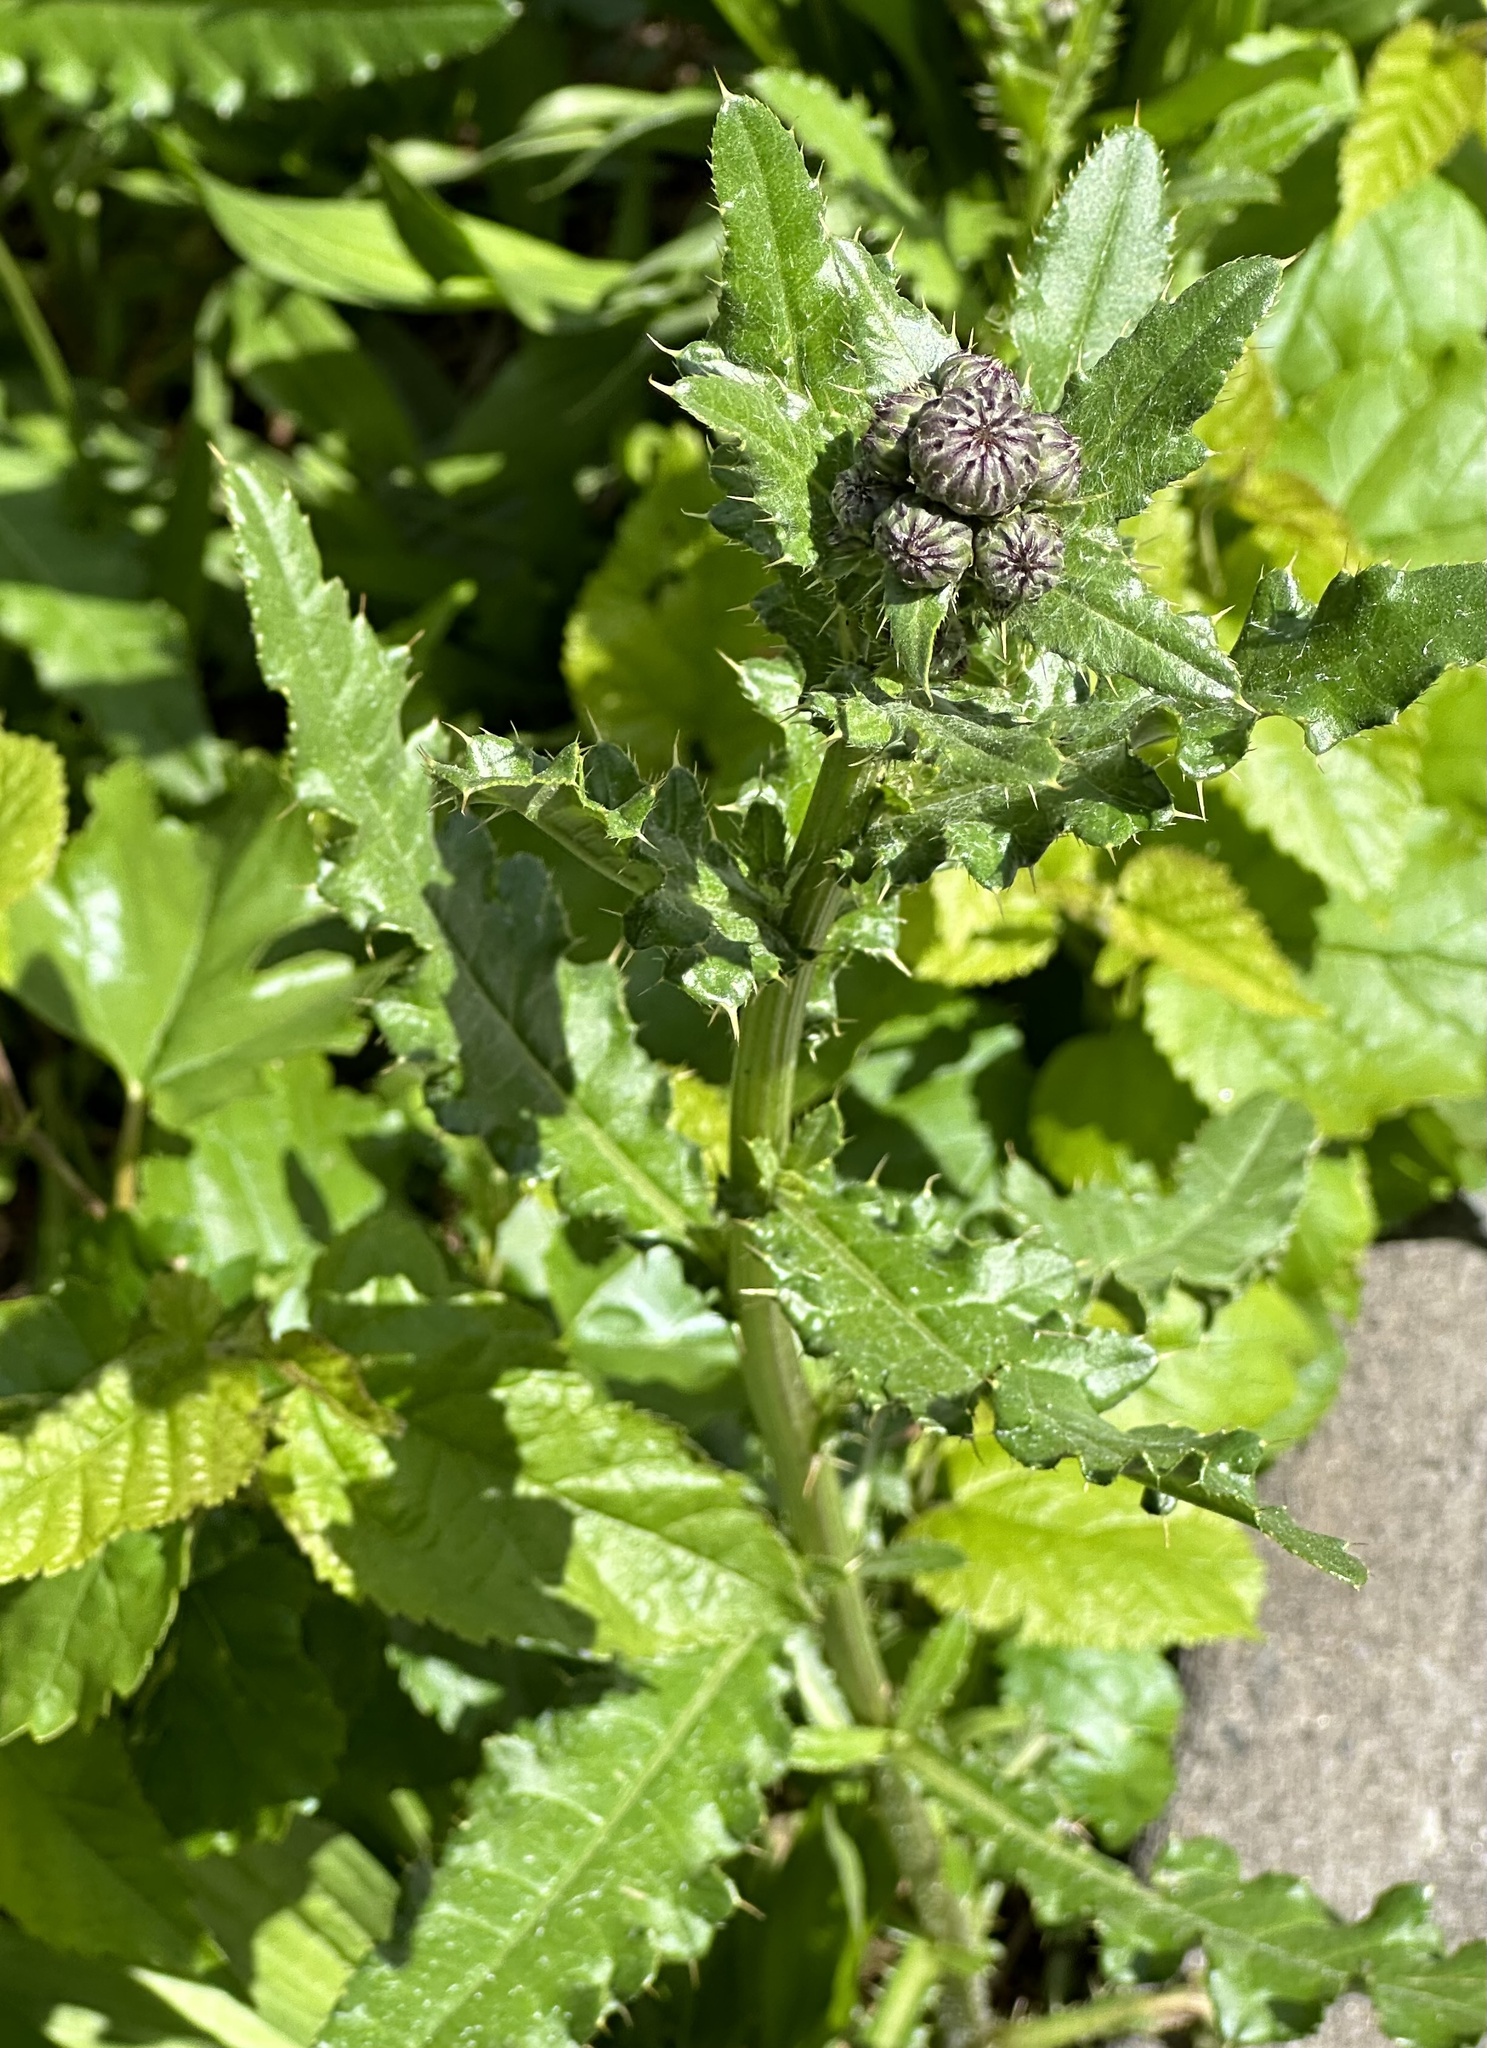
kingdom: Plantae
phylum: Tracheophyta
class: Magnoliopsida
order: Asterales
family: Asteraceae
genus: Cirsium
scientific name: Cirsium arvense
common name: Creeping thistle
